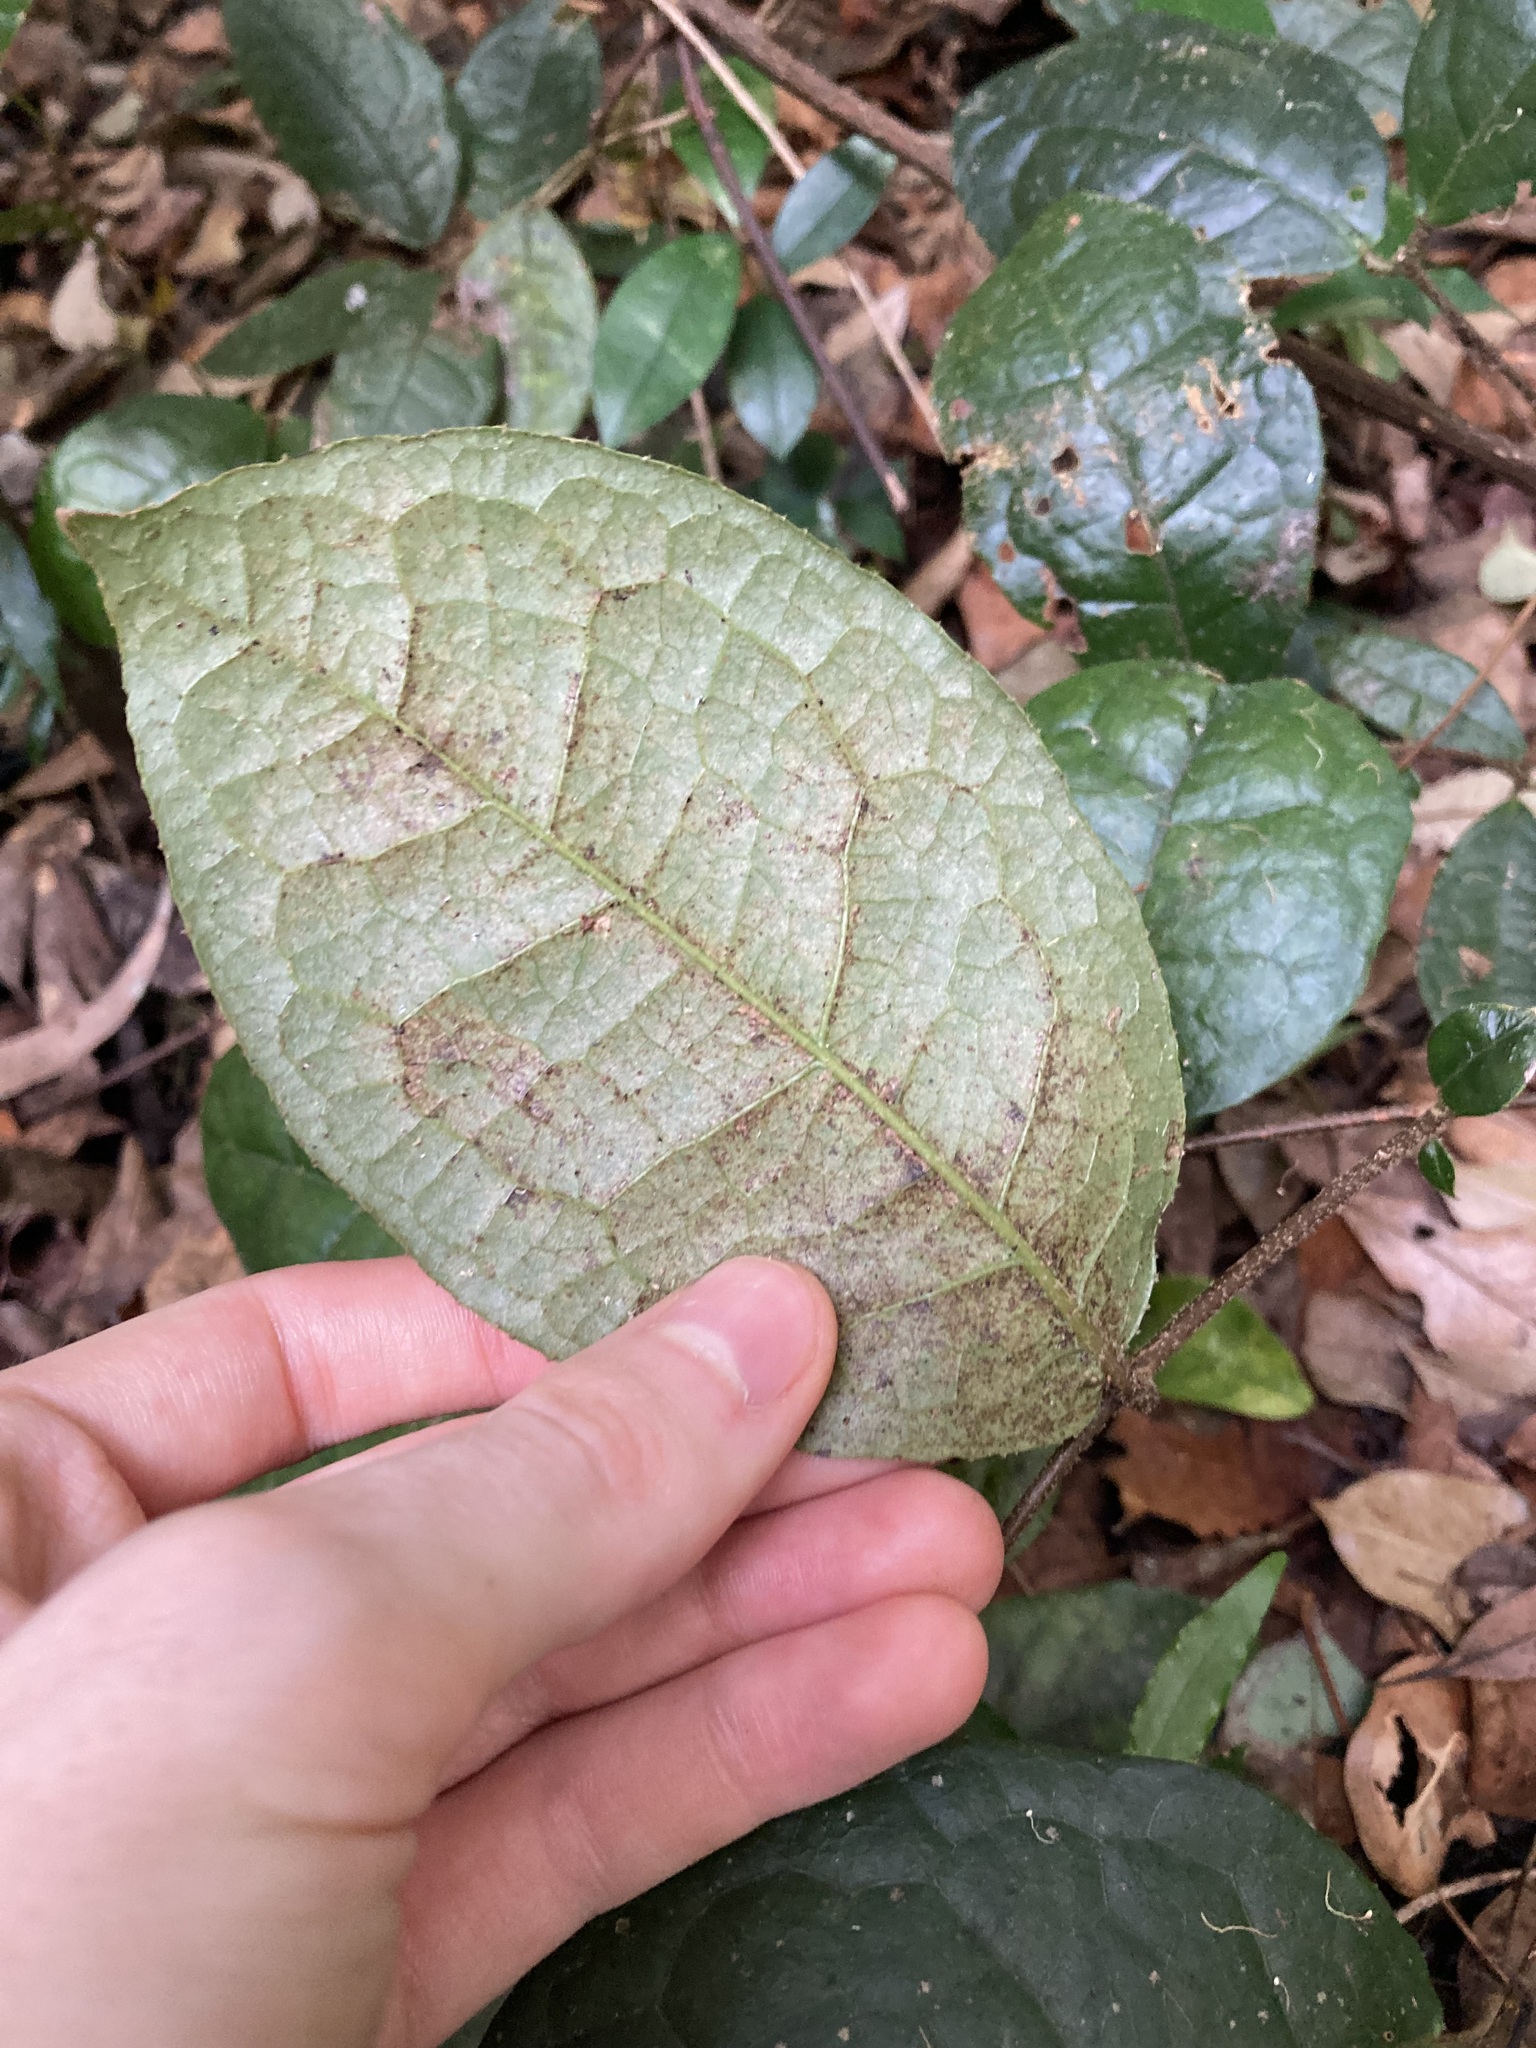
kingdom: Plantae
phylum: Tracheophyta
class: Magnoliopsida
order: Laurales
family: Monimiaceae
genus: Palmeria
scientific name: Palmeria scandens
